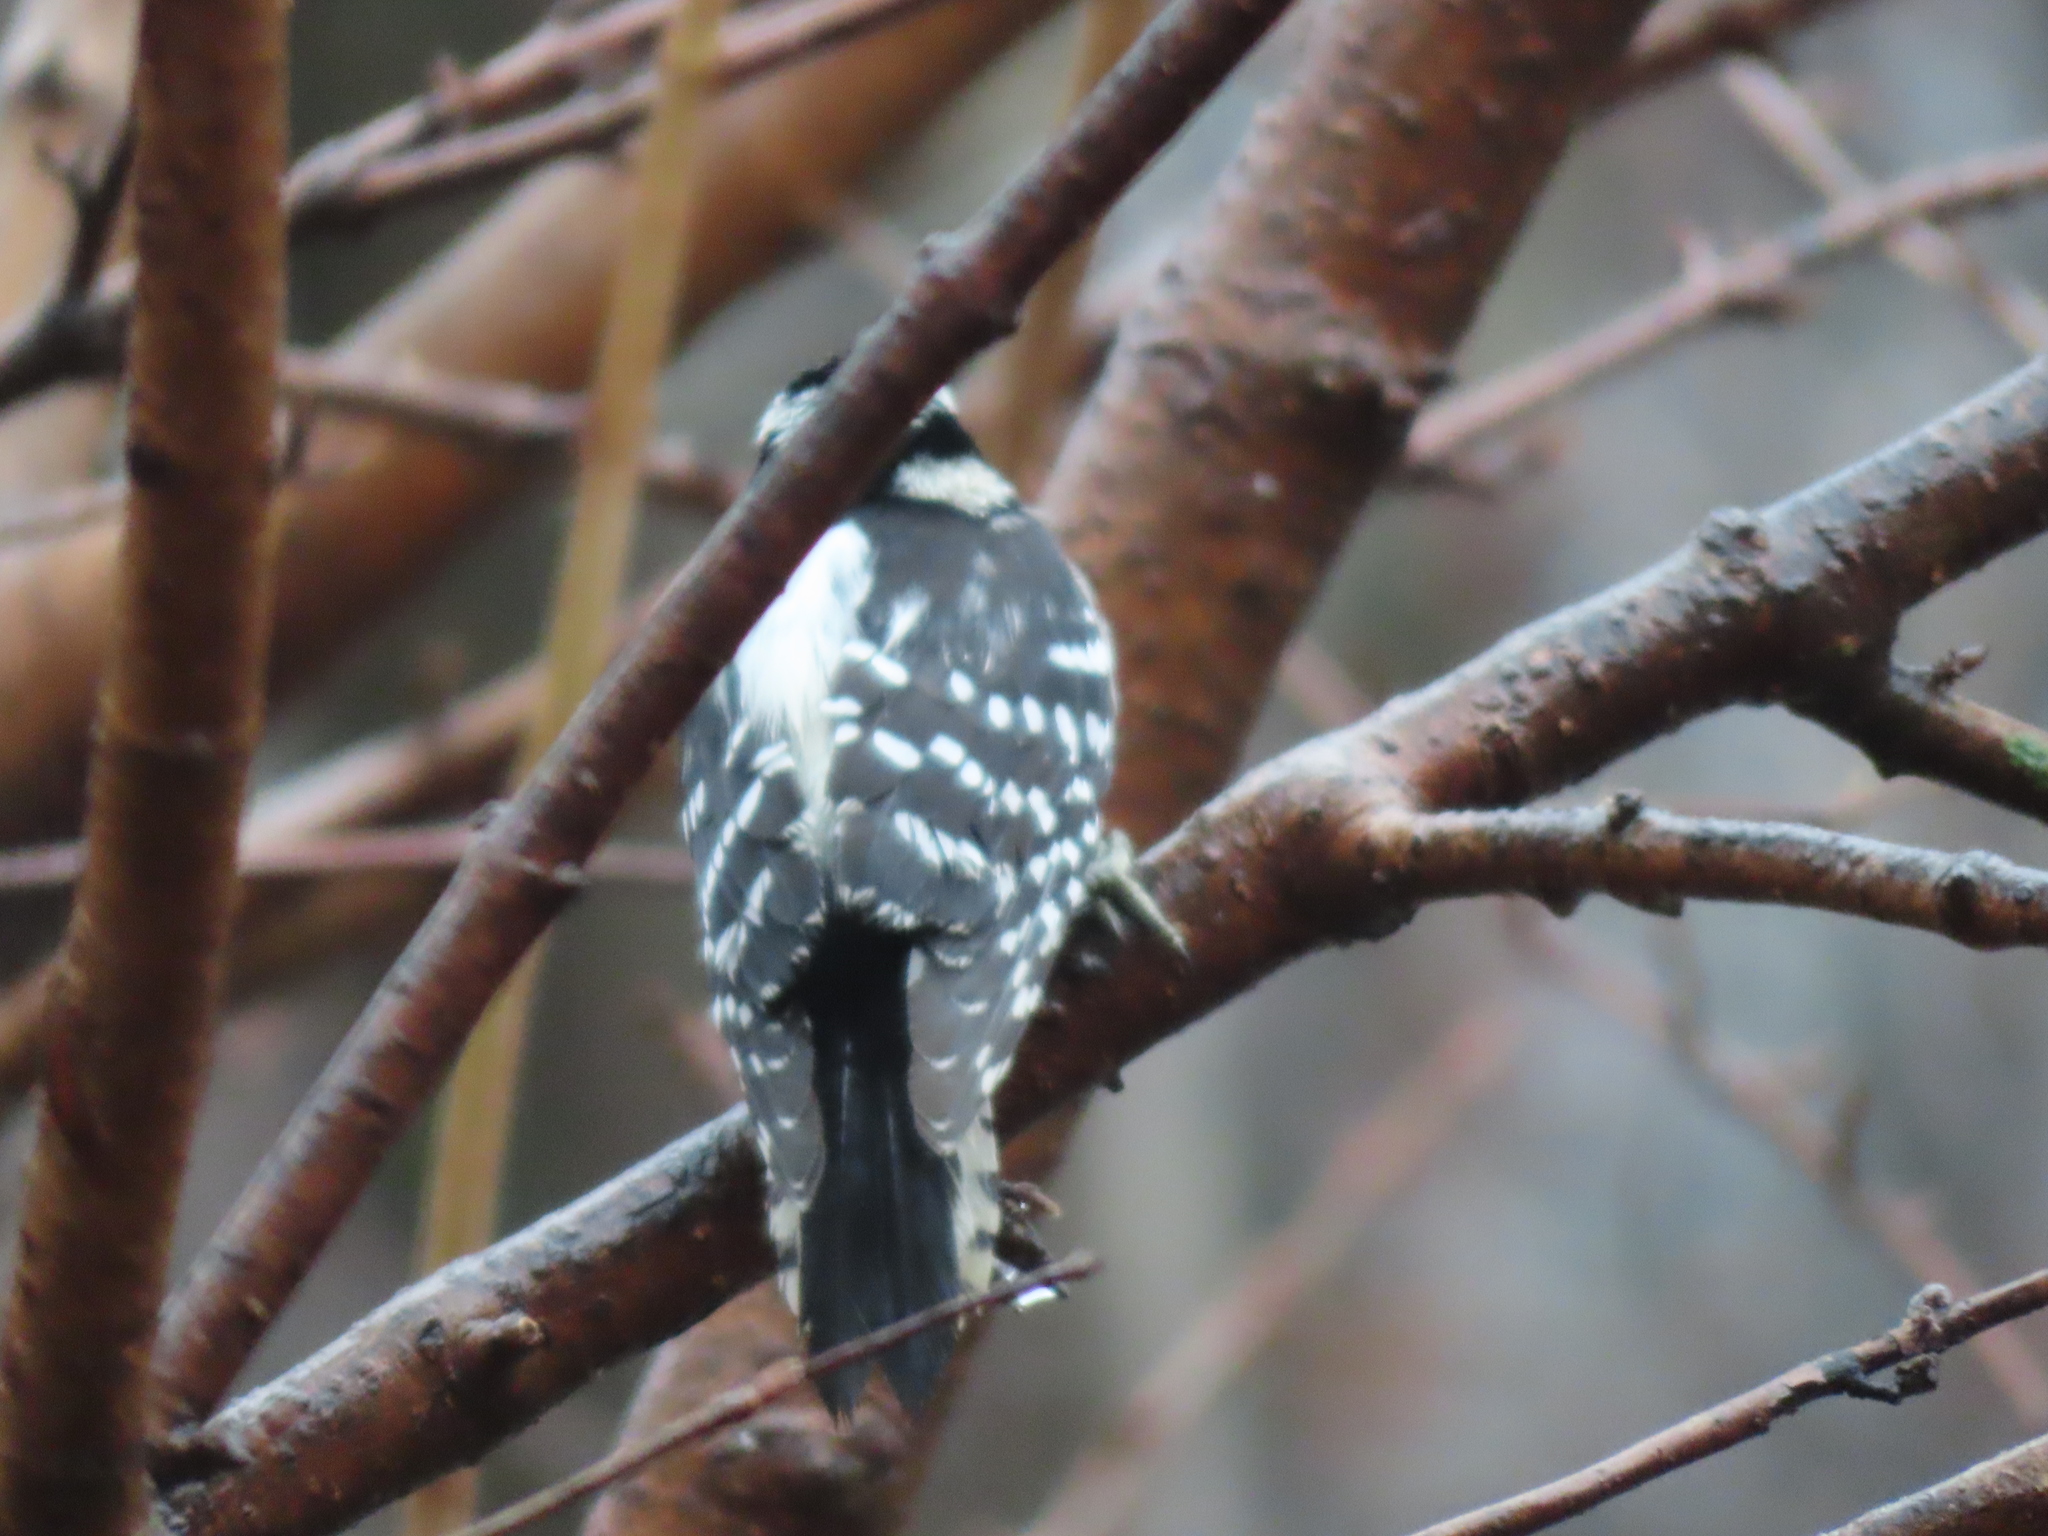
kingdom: Animalia
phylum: Chordata
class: Aves
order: Piciformes
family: Picidae
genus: Dryobates
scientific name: Dryobates pubescens
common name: Downy woodpecker
